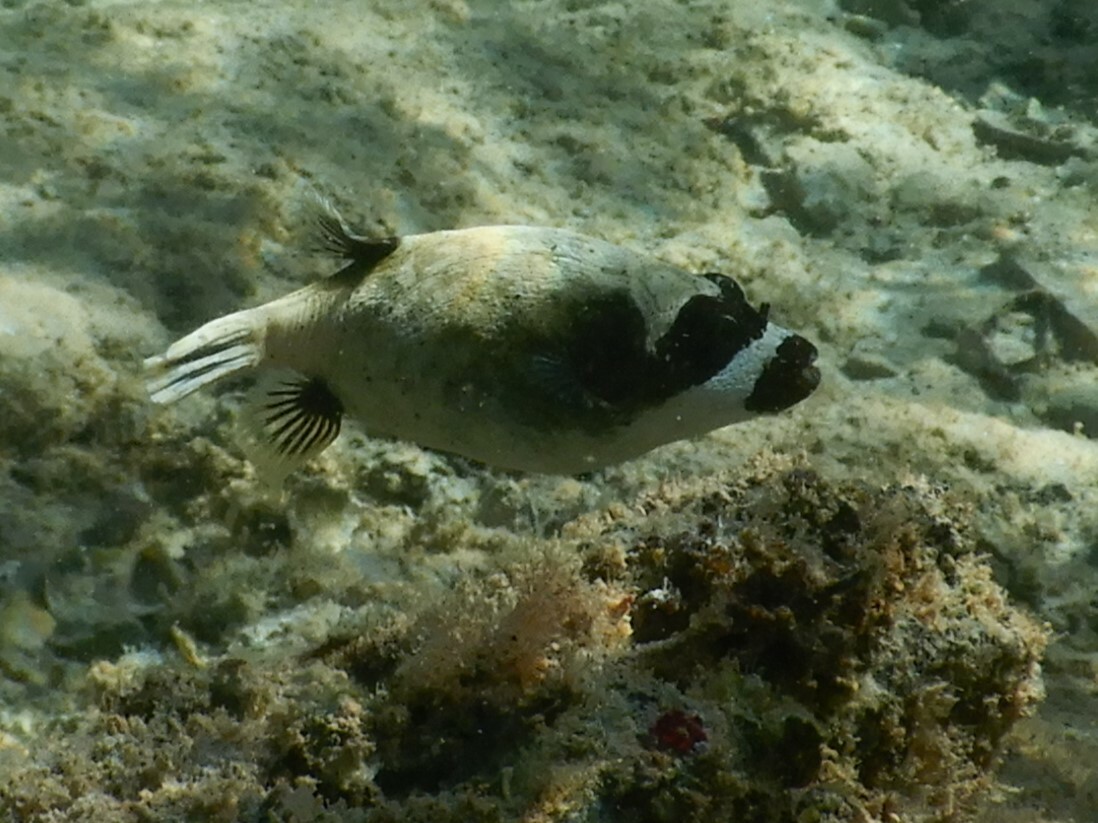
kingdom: Animalia
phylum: Chordata
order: Tetraodontiformes
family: Tetraodontidae
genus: Arothron
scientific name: Arothron diadematus
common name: Masked puffer
